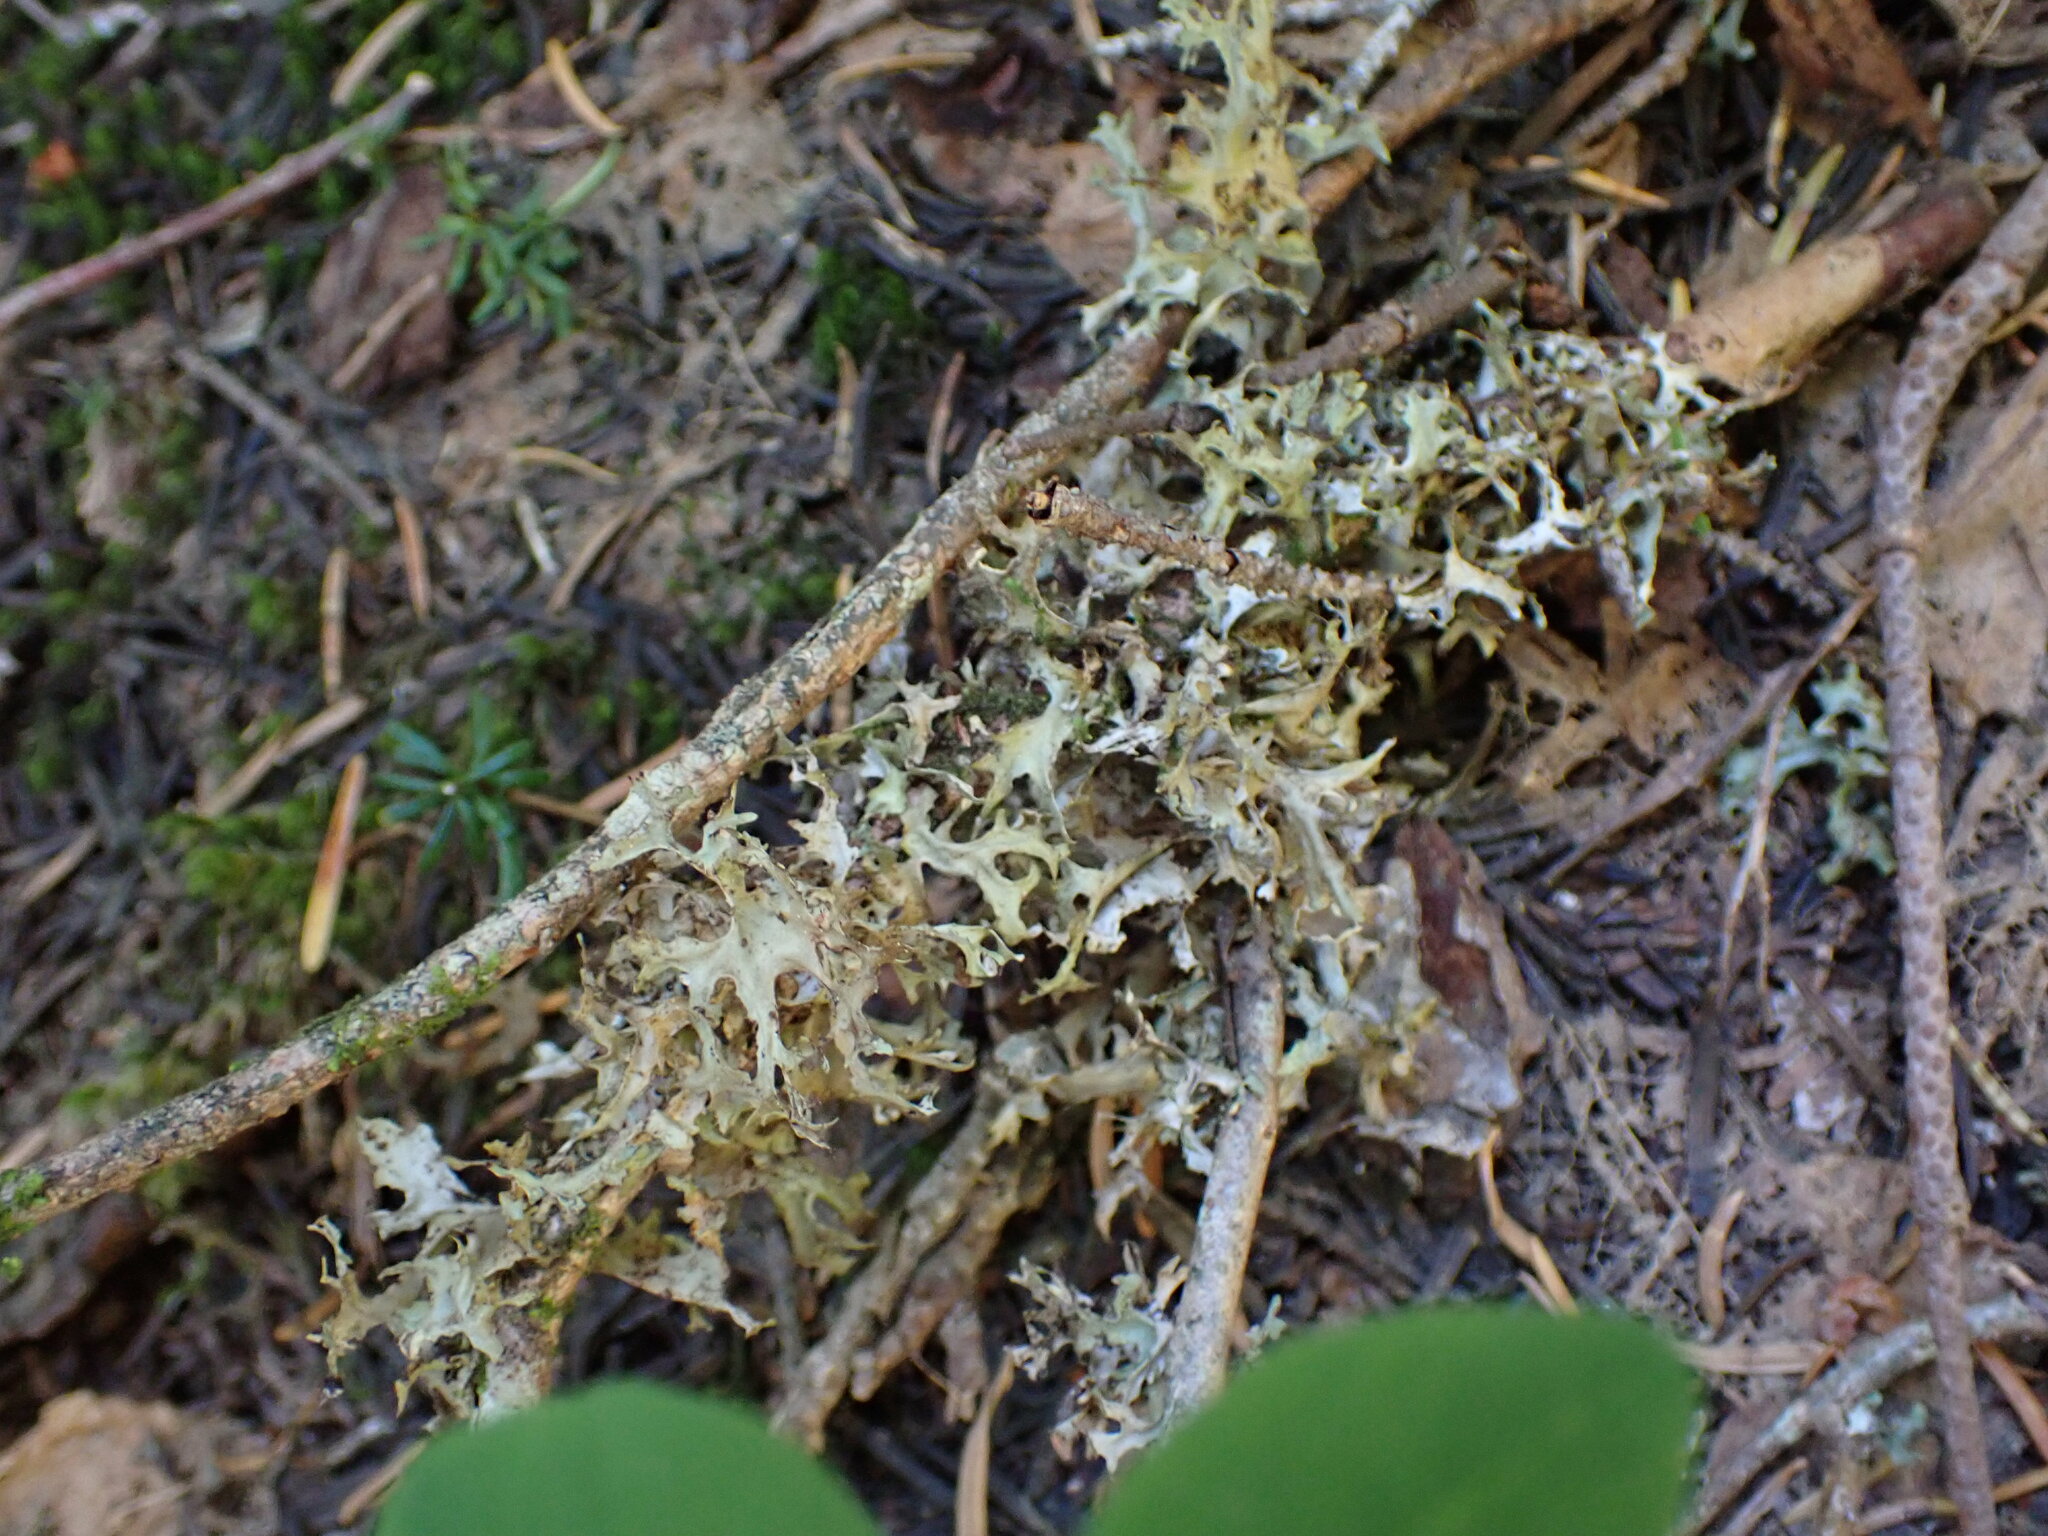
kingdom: Fungi
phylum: Ascomycota
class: Lecanoromycetes
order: Lecanorales
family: Parmeliaceae
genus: Nephromopsis
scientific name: Nephromopsis subalpina
